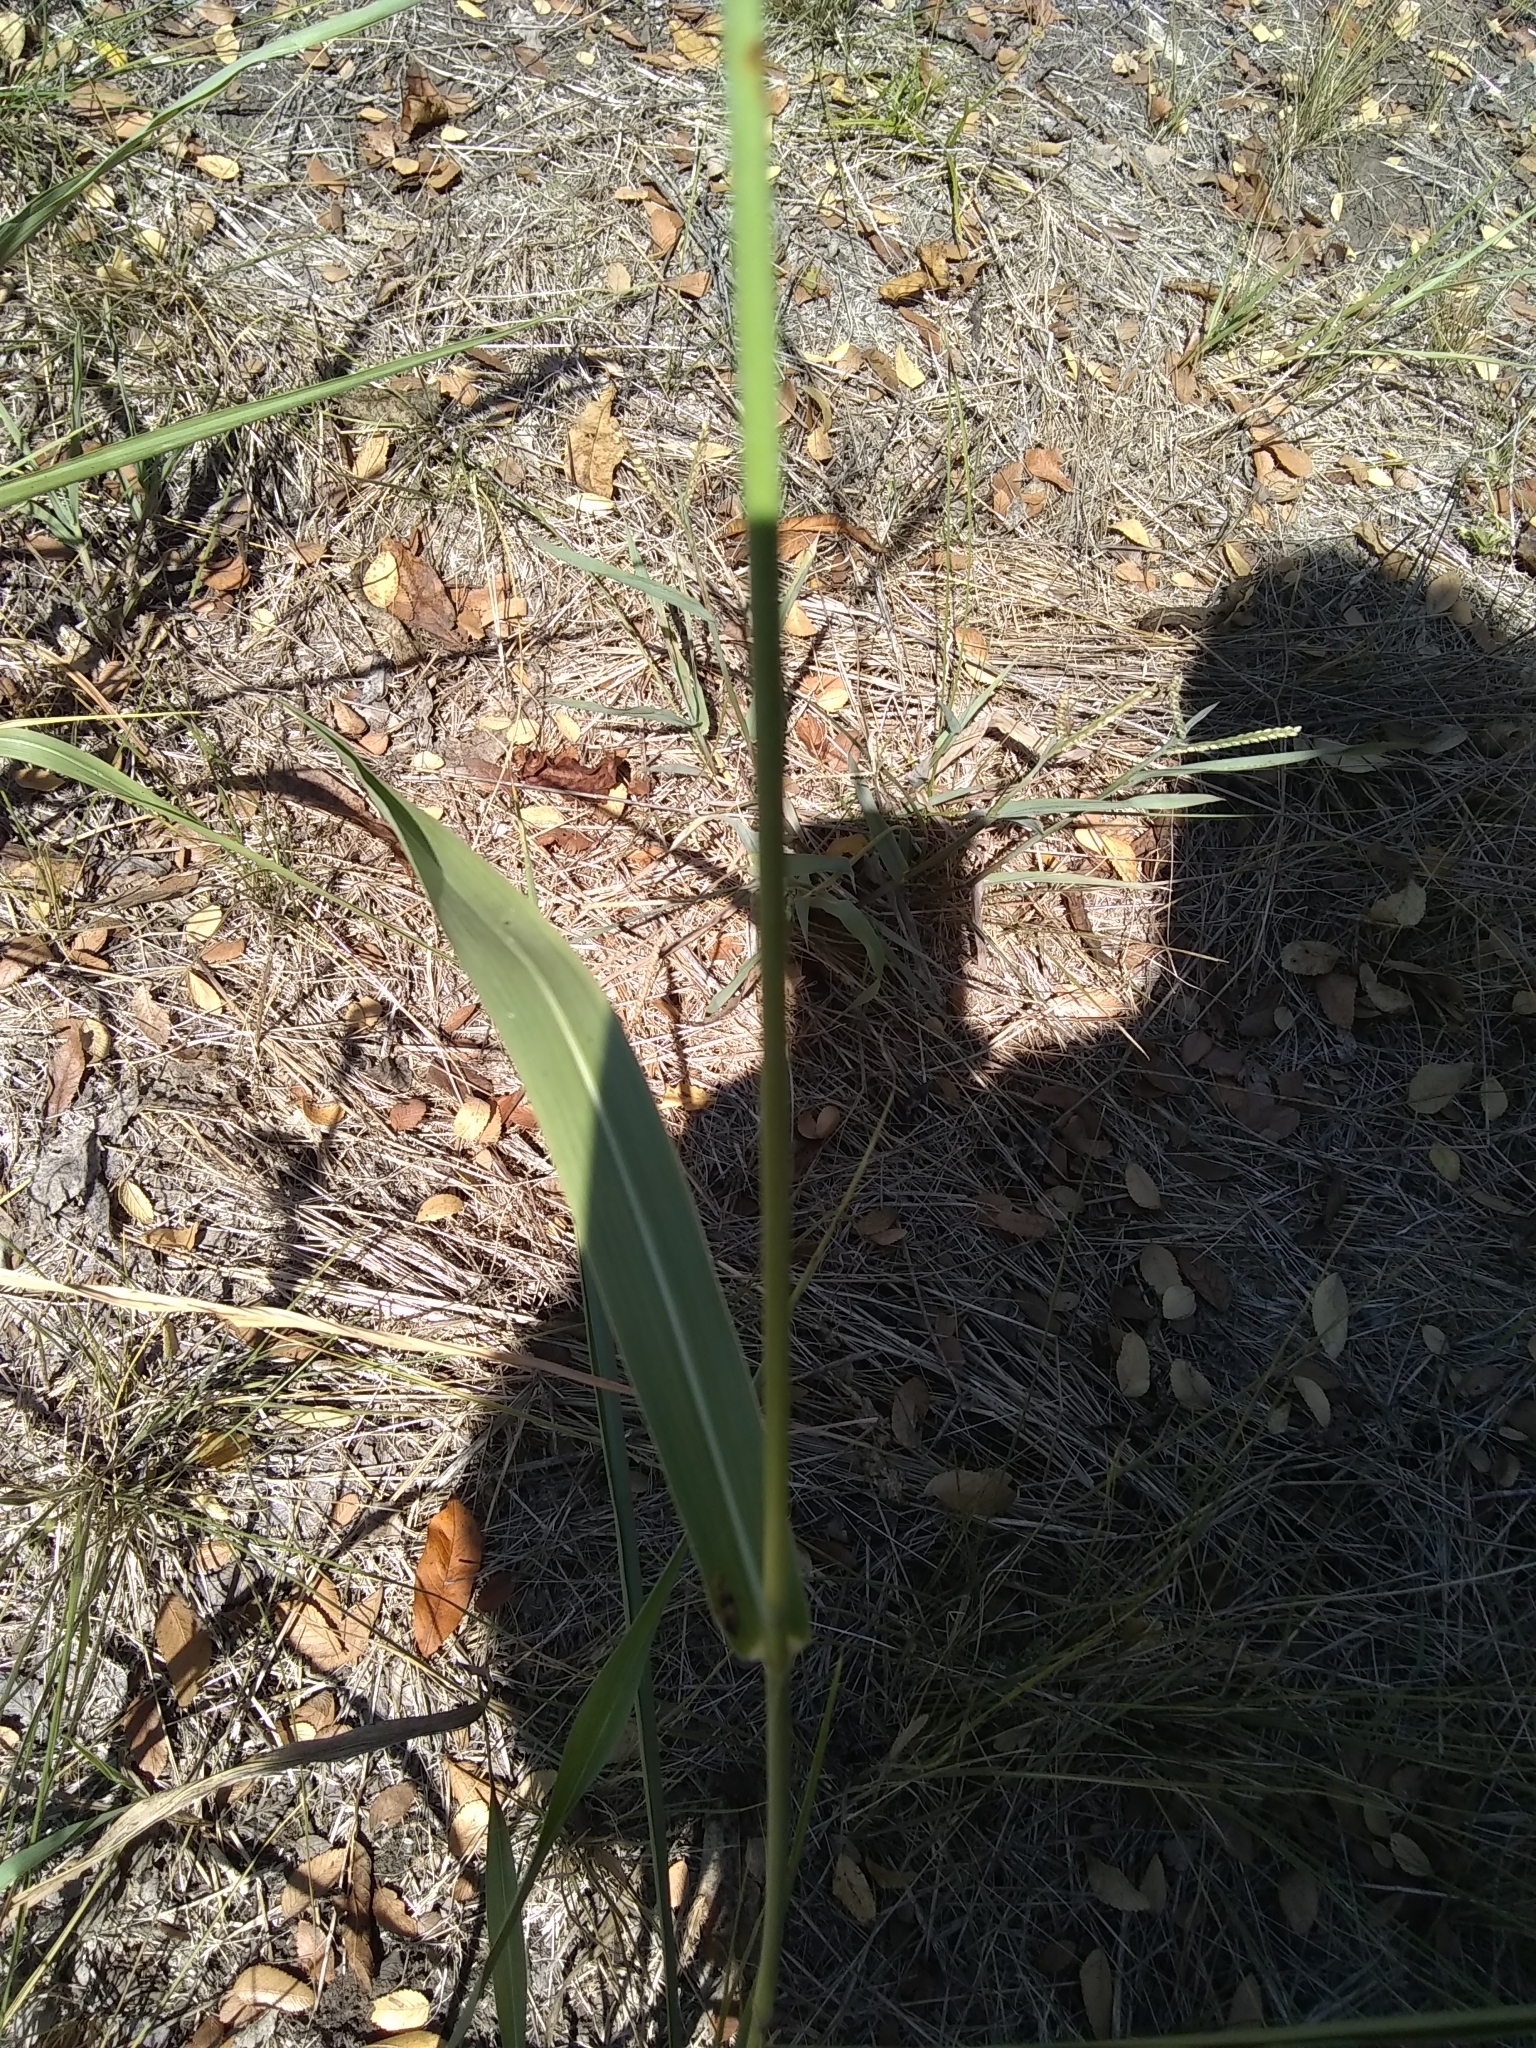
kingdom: Plantae
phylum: Tracheophyta
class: Liliopsida
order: Poales
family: Poaceae
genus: Sorghum
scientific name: Sorghum halepense
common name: Johnson-grass
